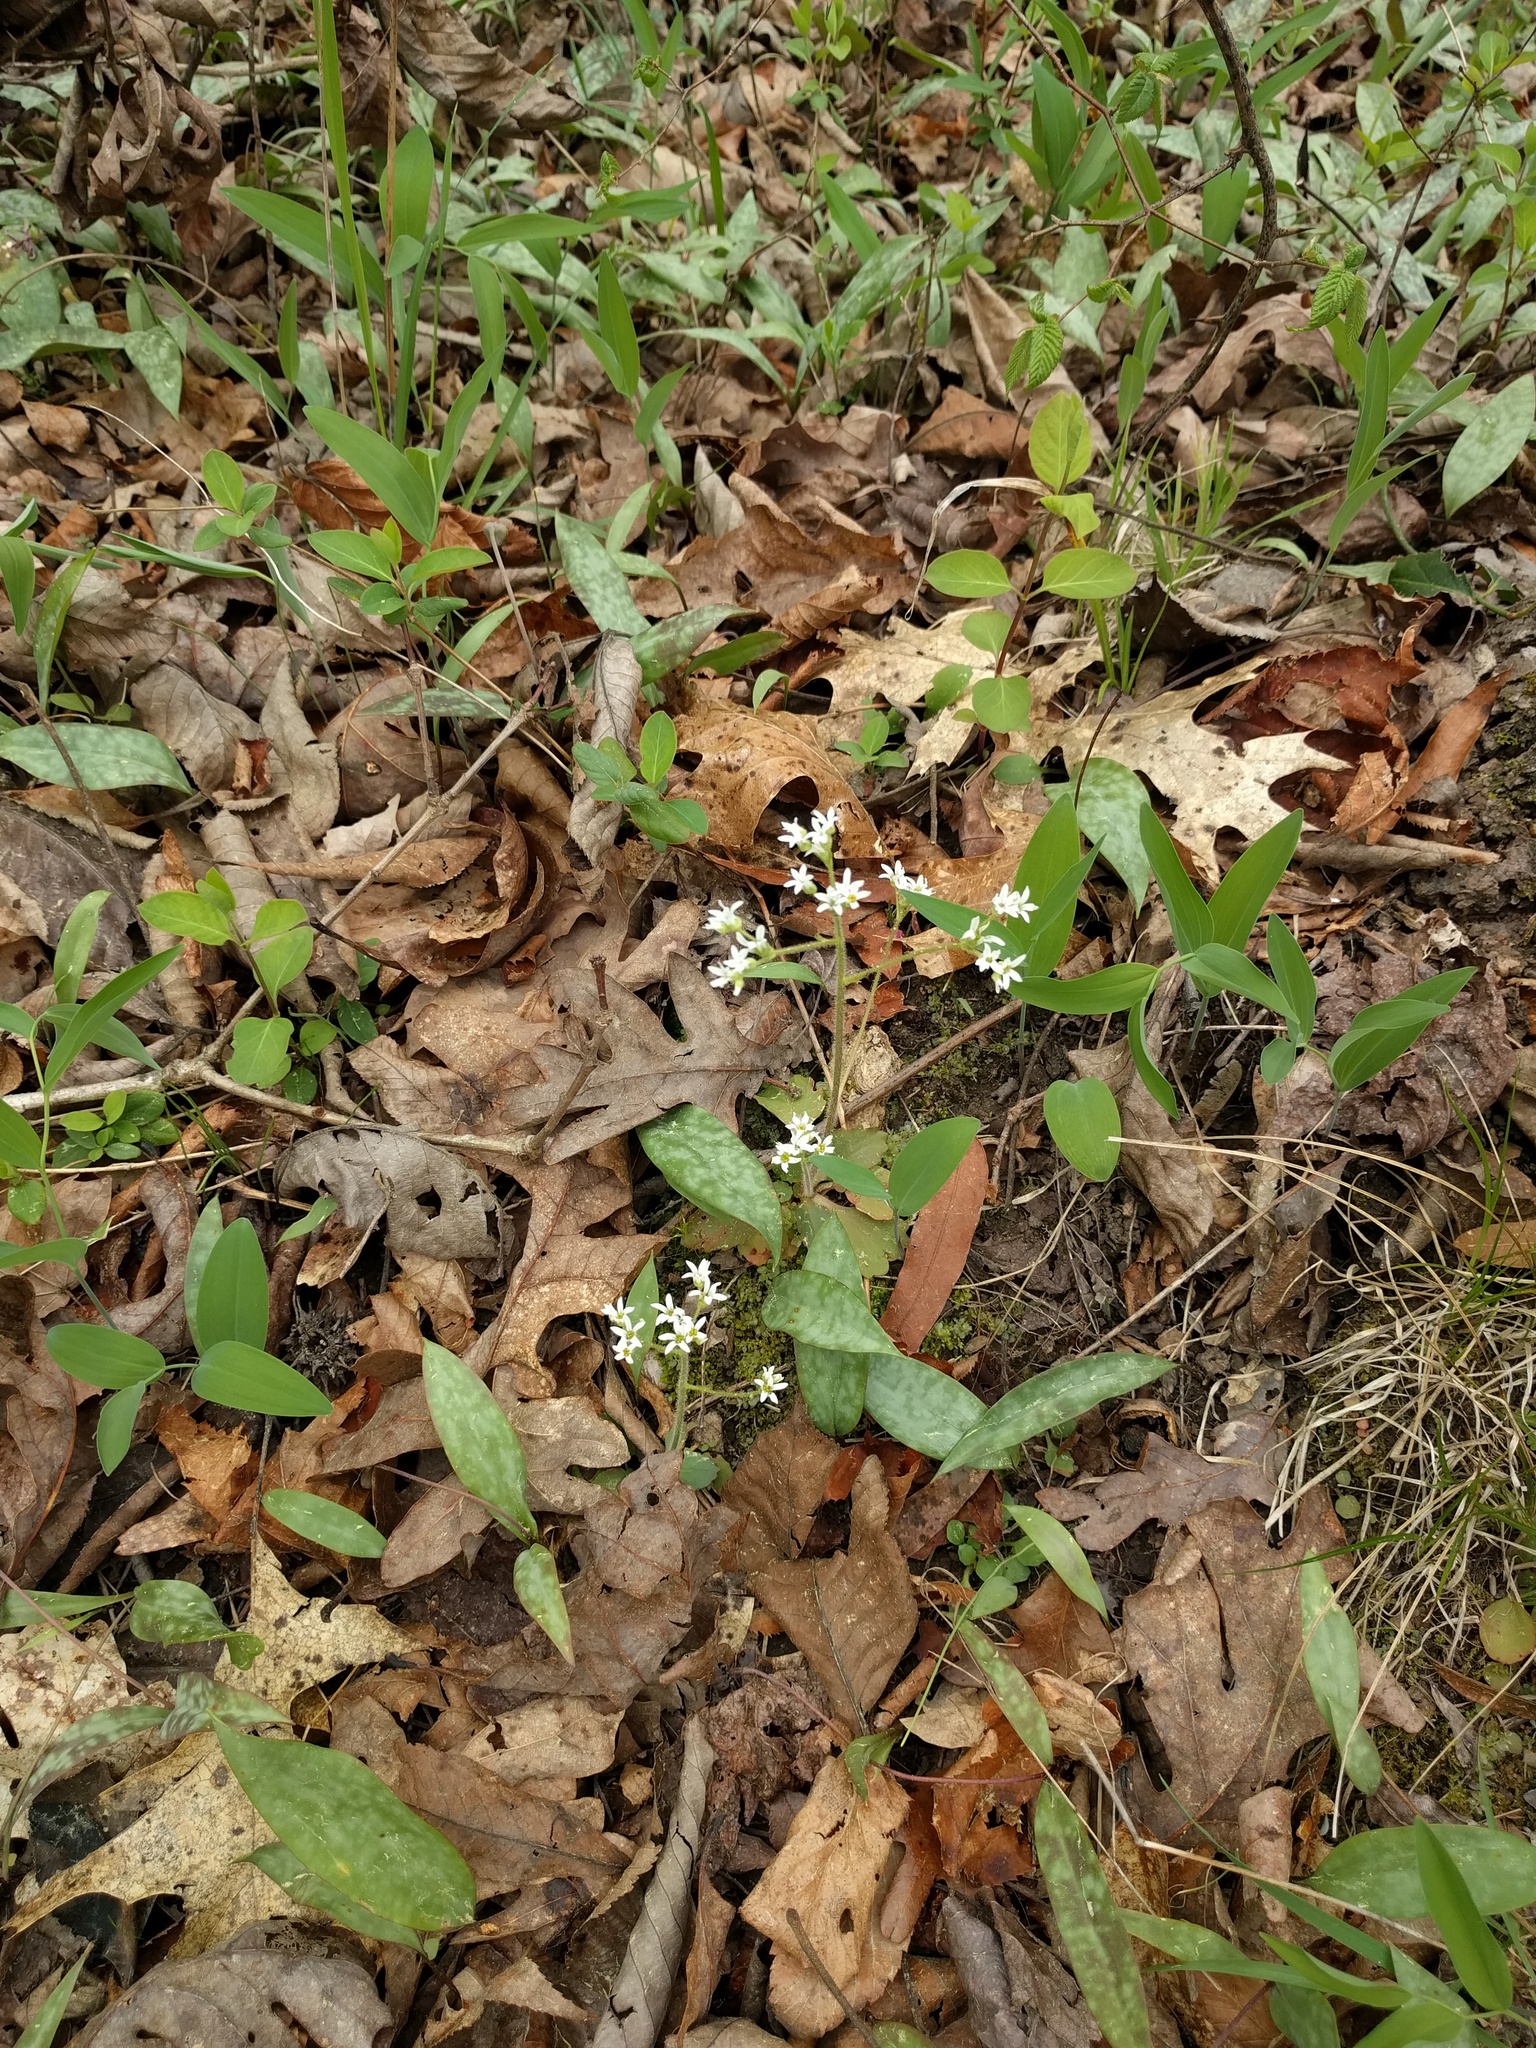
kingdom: Plantae
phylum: Tracheophyta
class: Magnoliopsida
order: Saxifragales
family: Saxifragaceae
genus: Micranthes
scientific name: Micranthes virginiensis
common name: Early saxifrage
